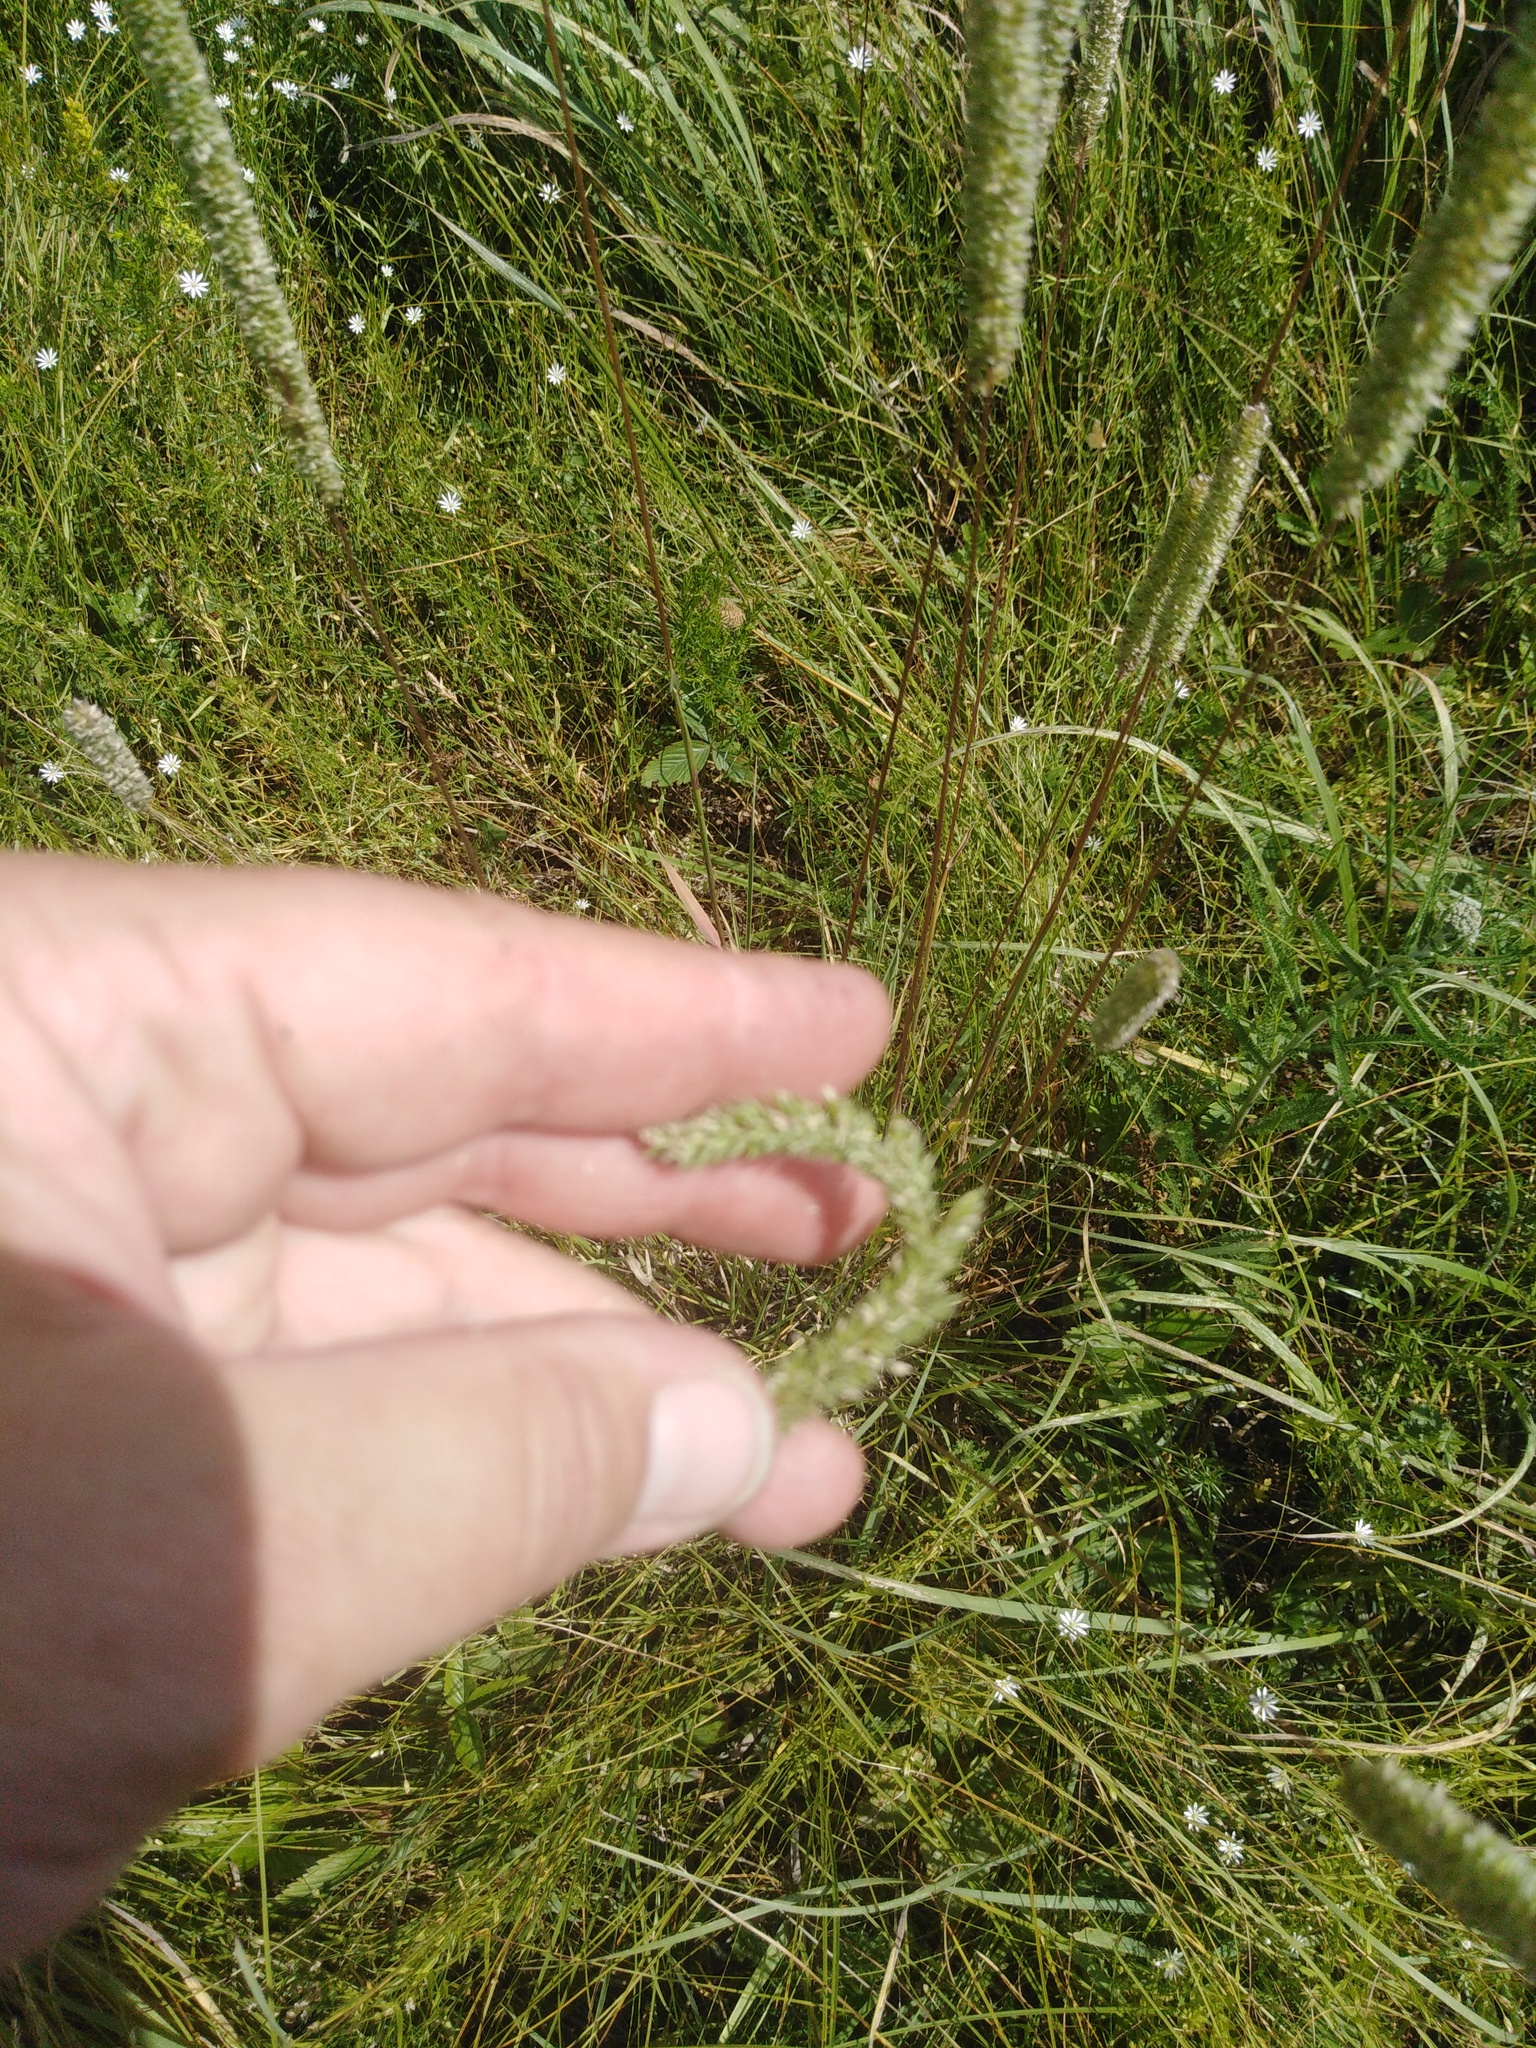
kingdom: Plantae
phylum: Tracheophyta
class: Liliopsida
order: Poales
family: Poaceae
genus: Phleum
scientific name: Phleum phleoides
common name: Purple-stem cat's-tail
